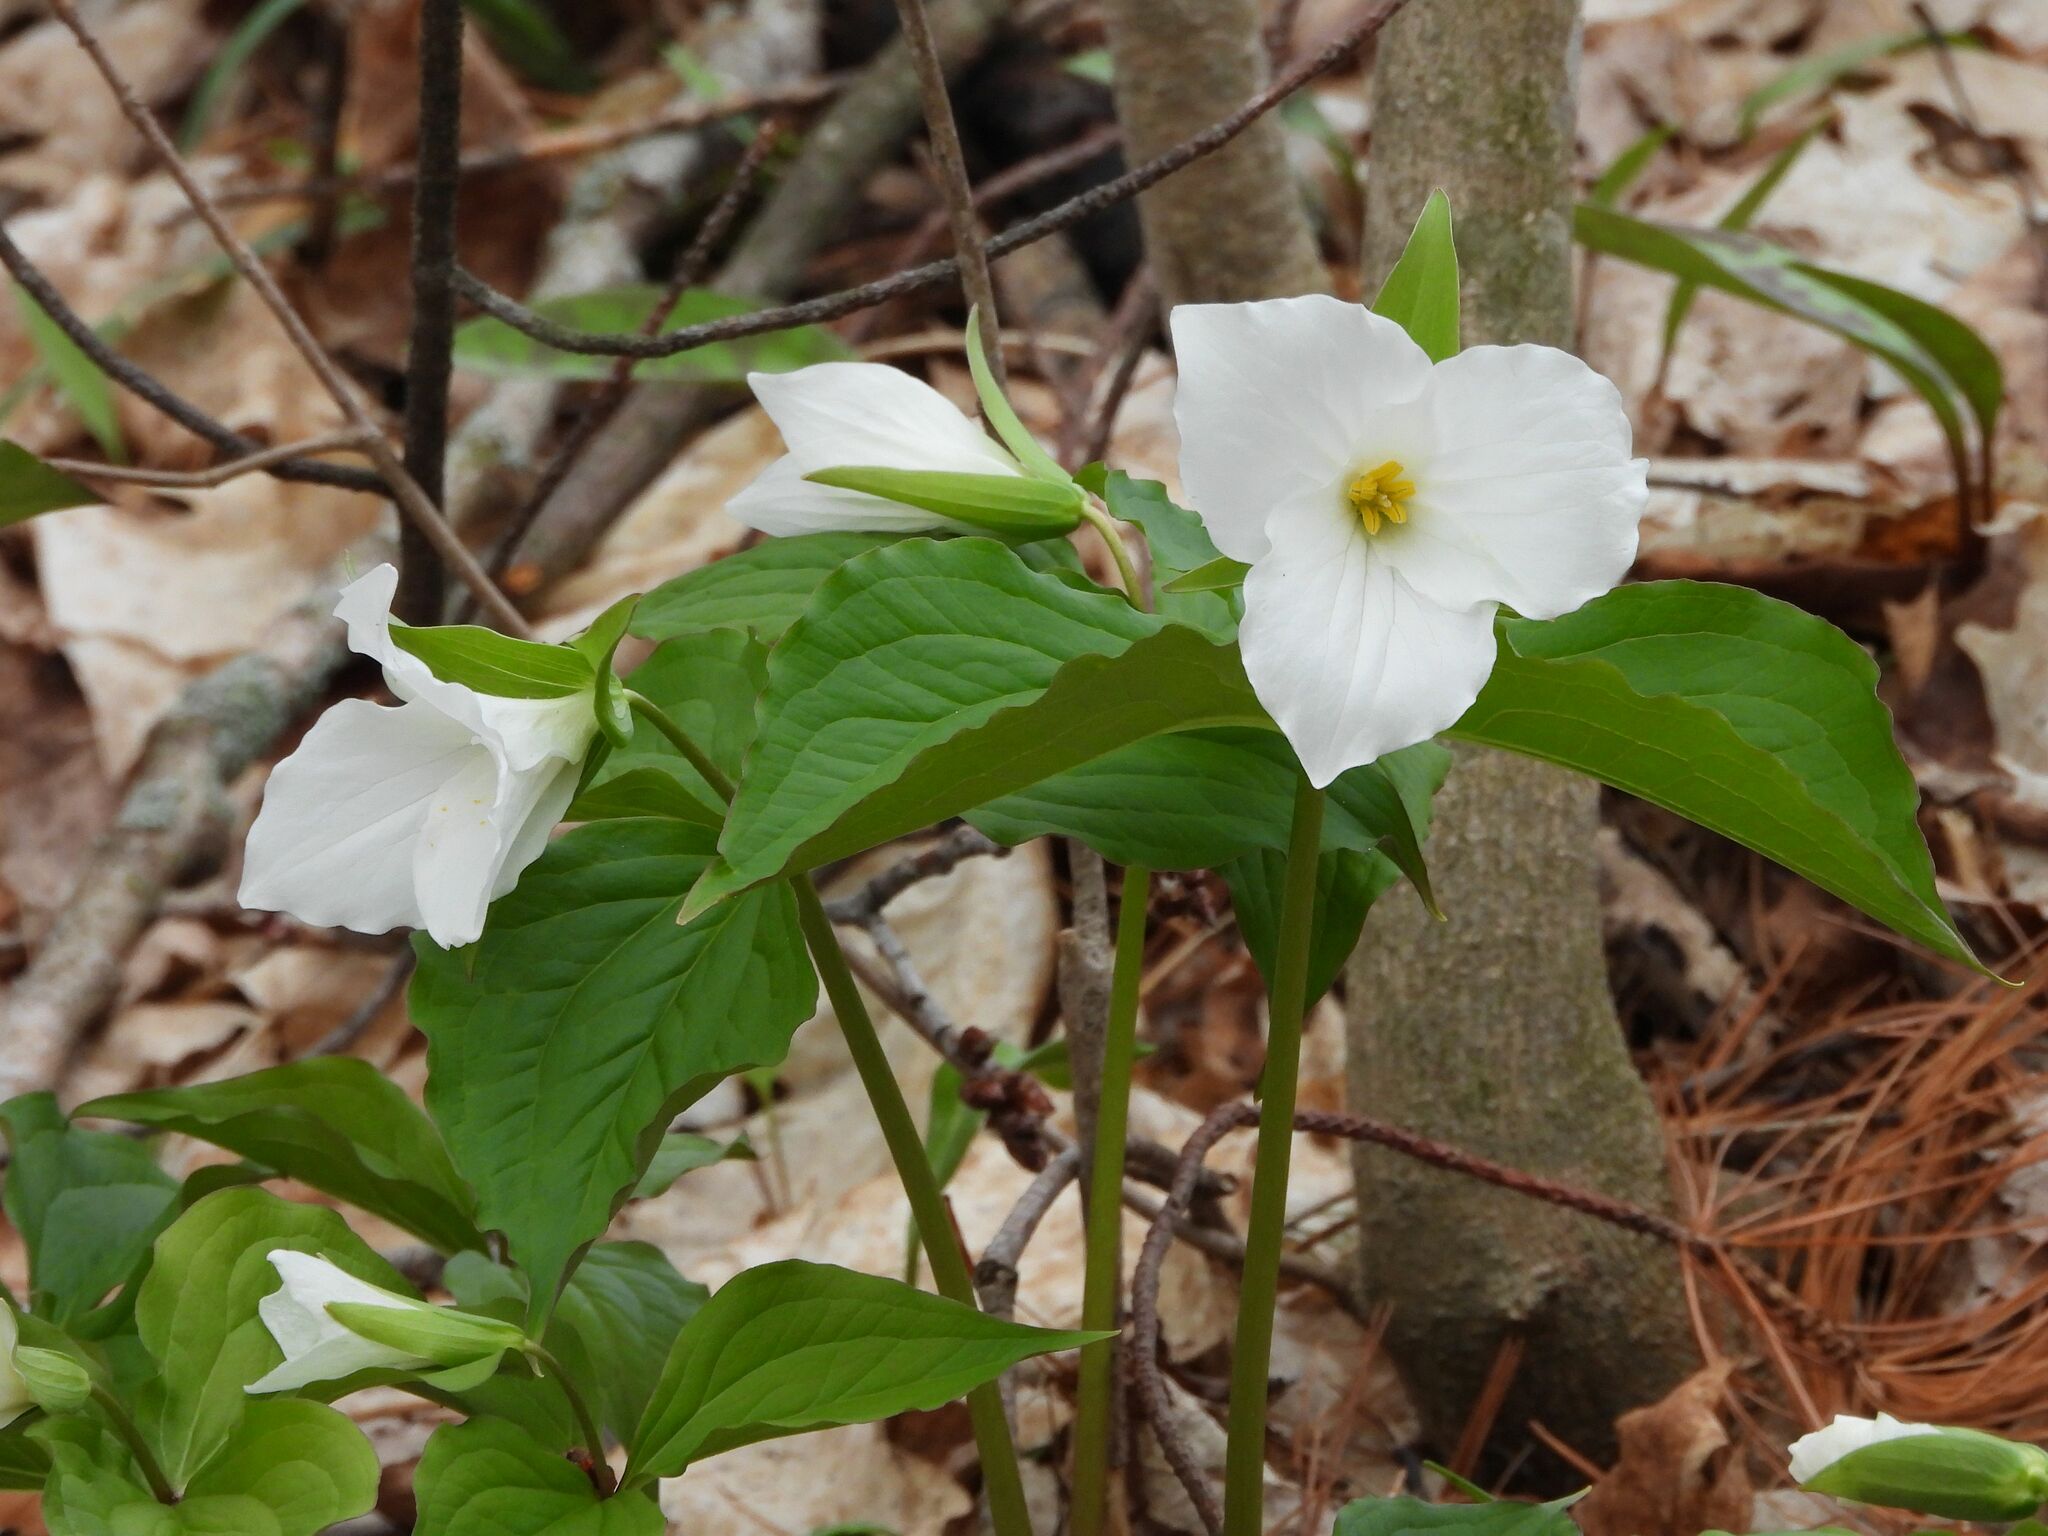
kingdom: Plantae
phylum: Tracheophyta
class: Liliopsida
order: Liliales
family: Melanthiaceae
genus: Trillium
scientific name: Trillium grandiflorum
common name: Great white trillium
